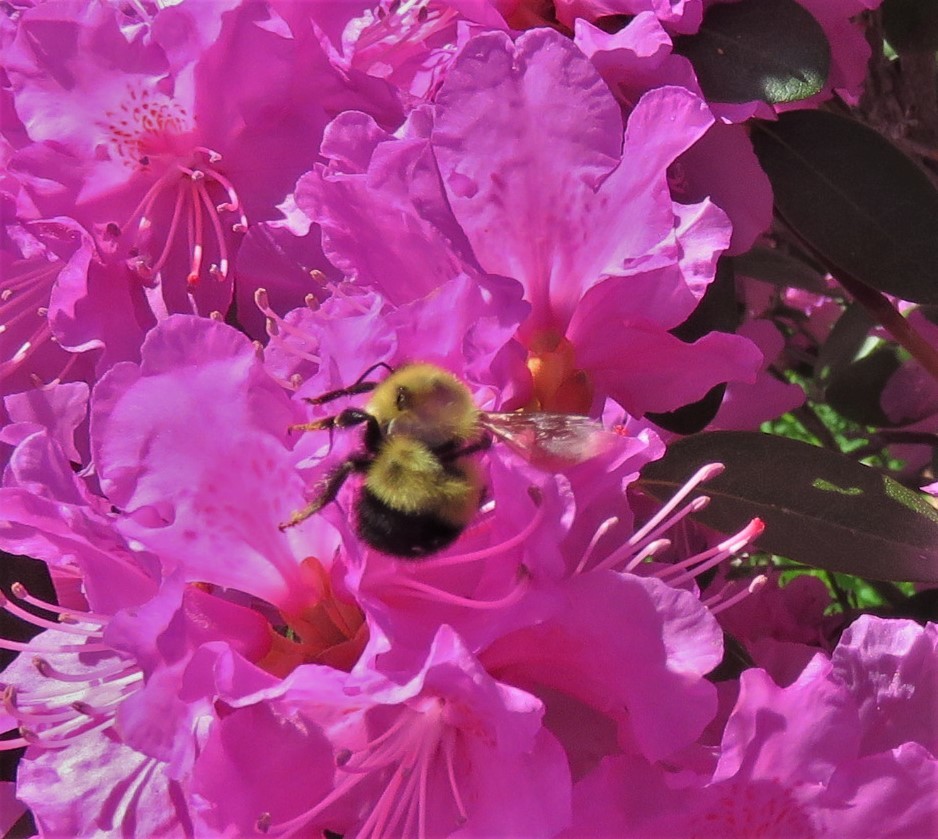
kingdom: Animalia
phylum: Arthropoda
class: Insecta
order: Hymenoptera
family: Apidae
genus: Bombus
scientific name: Bombus vagans
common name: Half-black bumble bee
